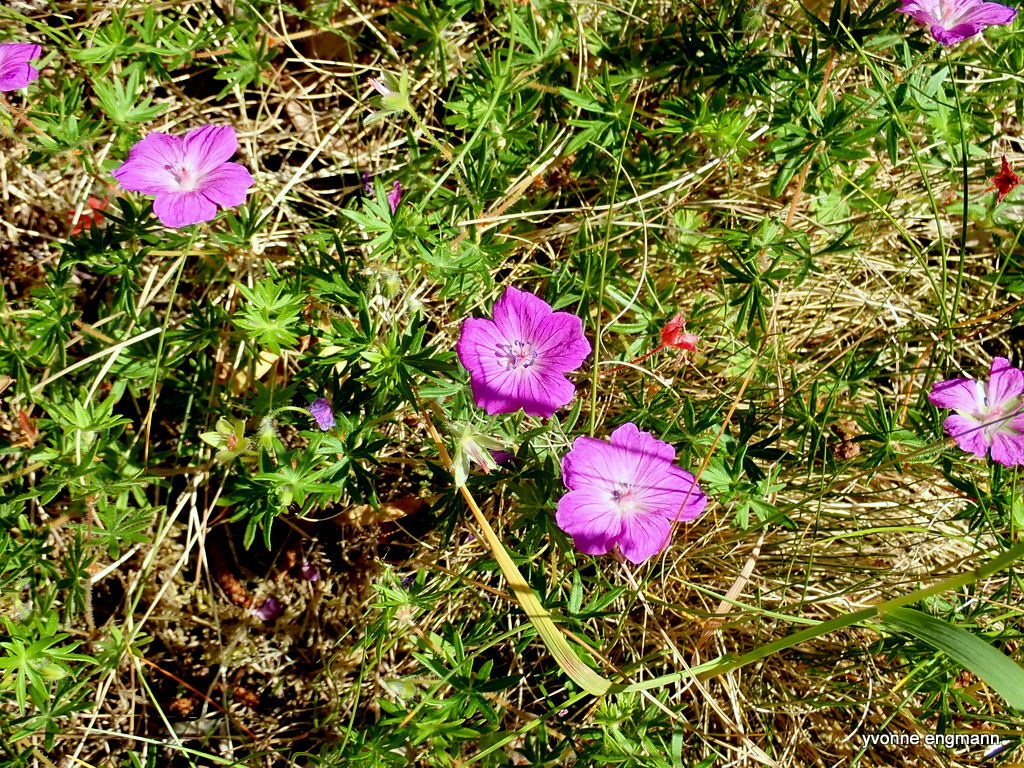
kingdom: Plantae
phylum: Tracheophyta
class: Magnoliopsida
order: Geraniales
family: Geraniaceae
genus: Geranium
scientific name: Geranium sanguineum
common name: Bloody crane's-bill
